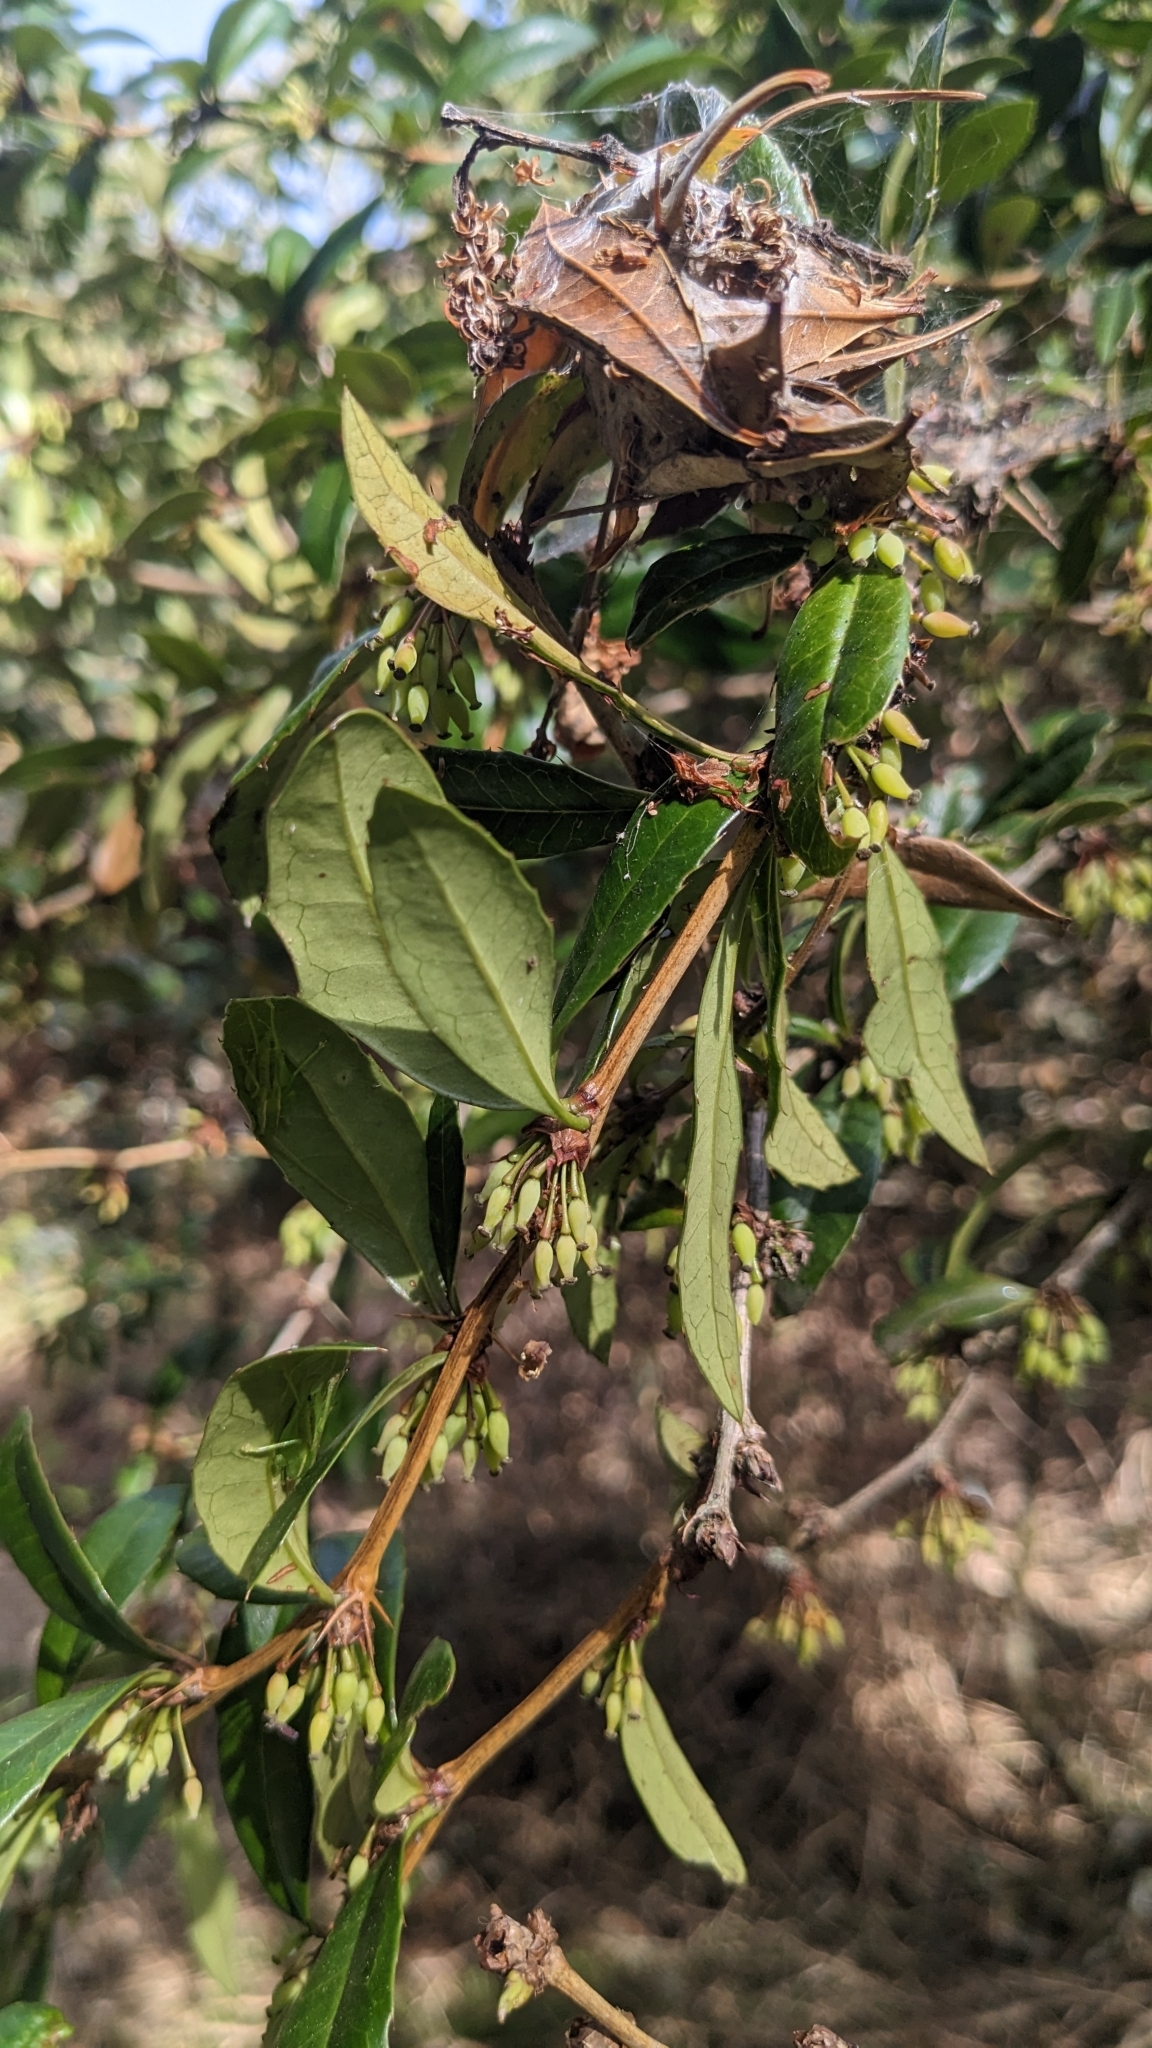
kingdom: Plantae
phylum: Tracheophyta
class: Magnoliopsida
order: Ranunculales
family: Berberidaceae
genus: Berberis
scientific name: Berberis kawakamii
